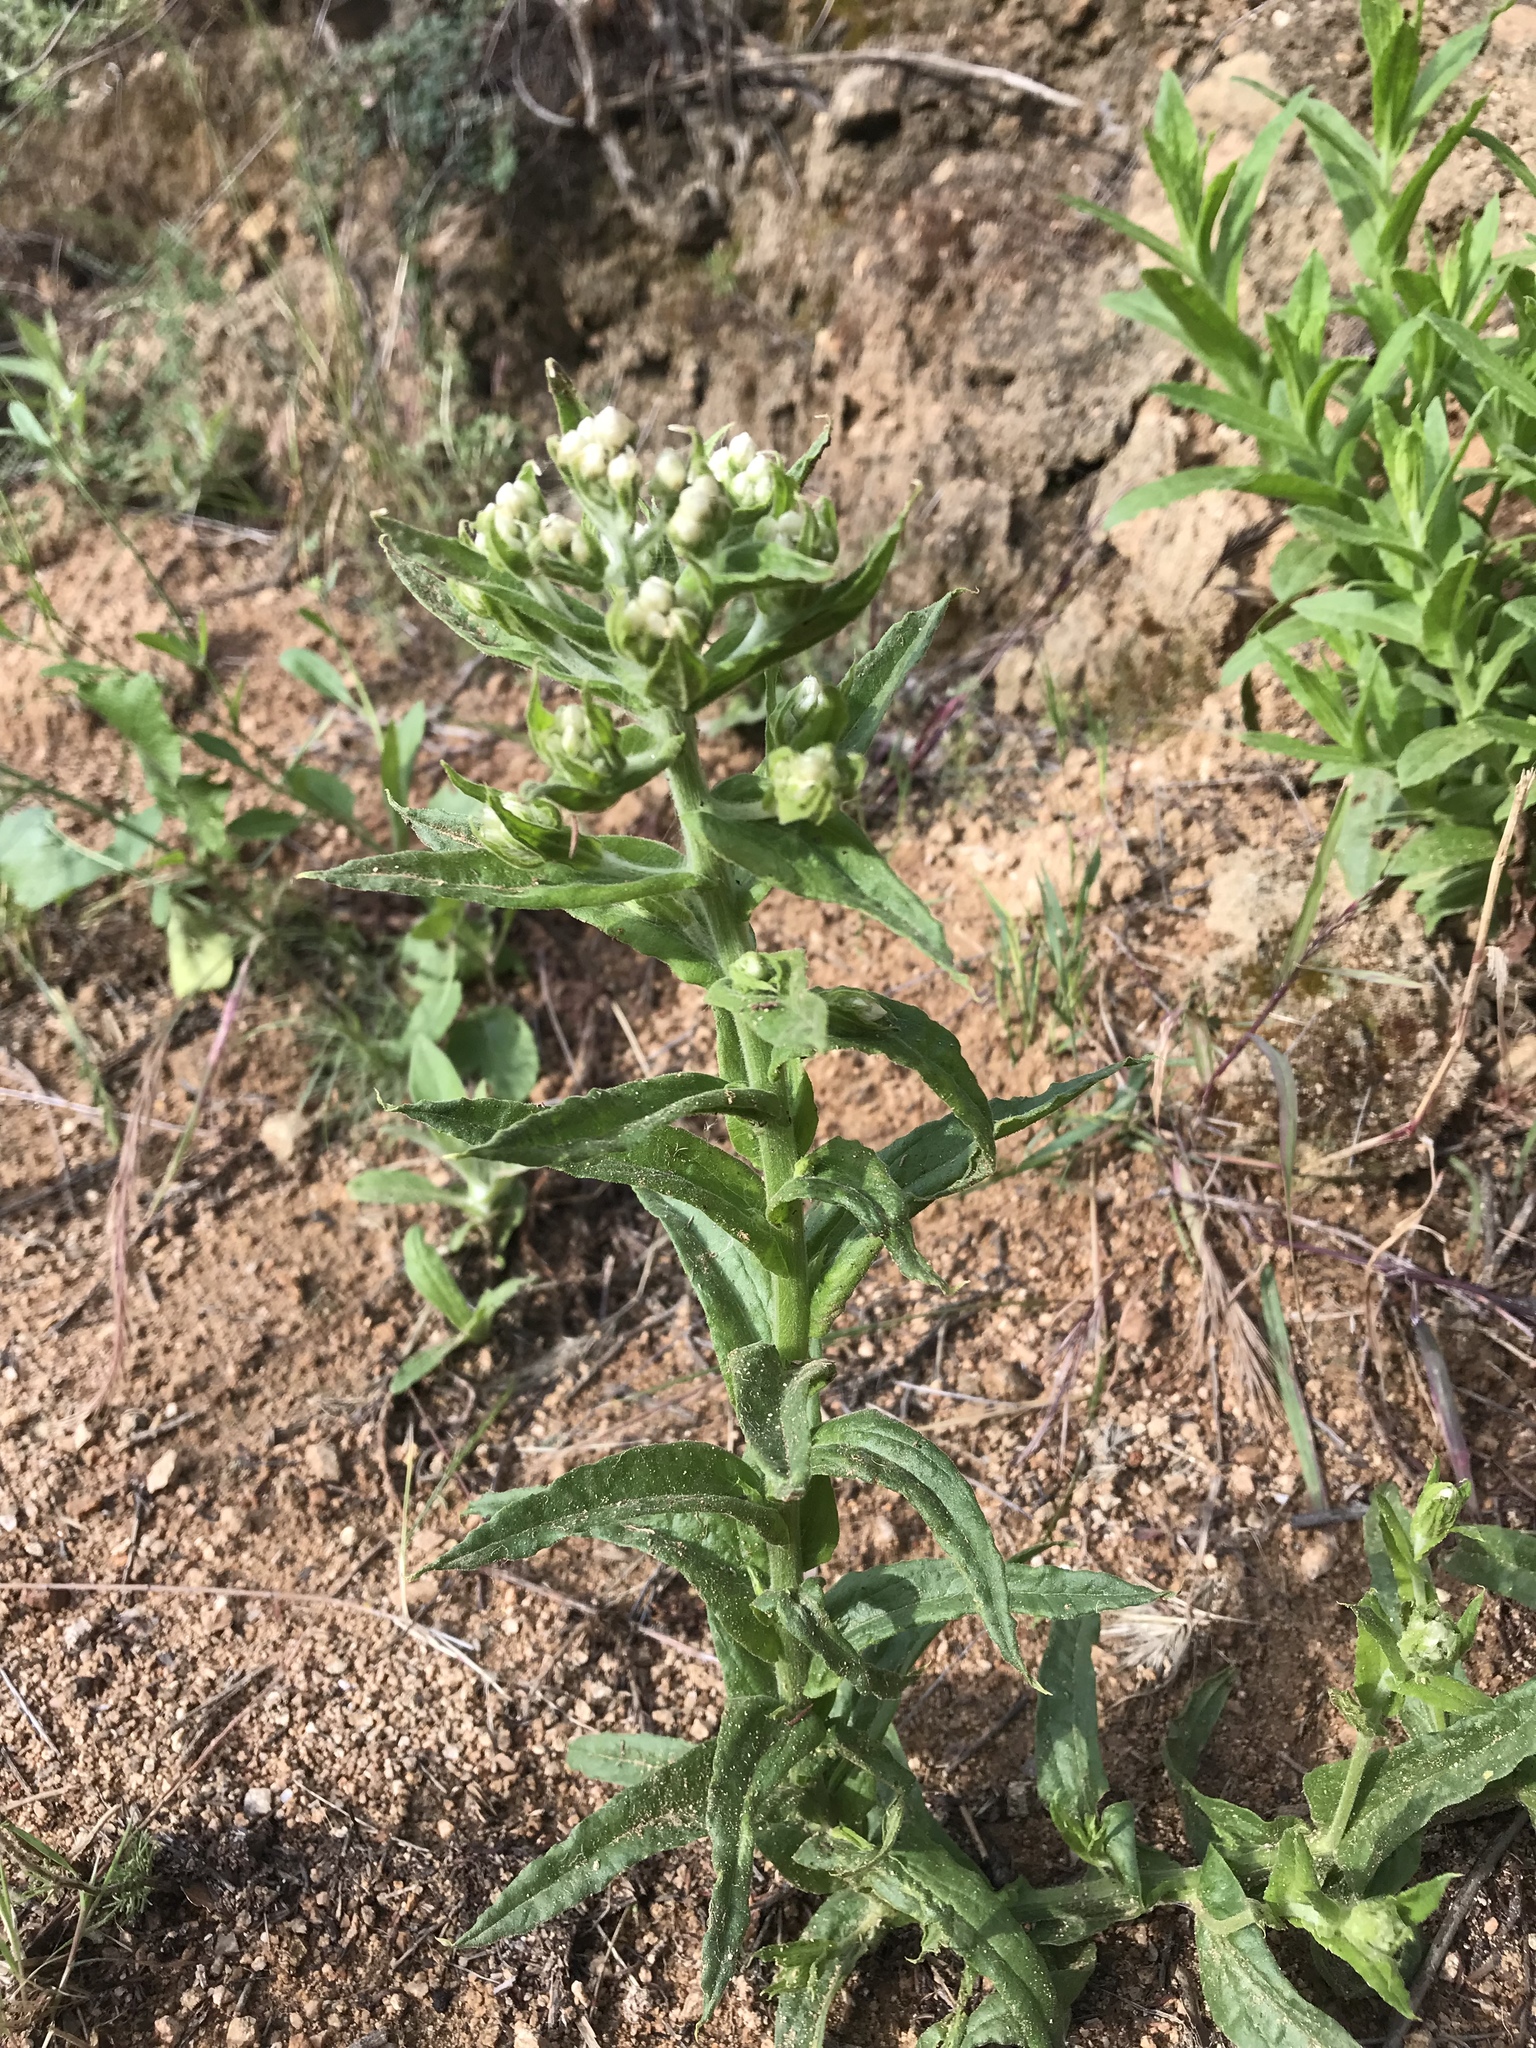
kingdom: Plantae
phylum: Tracheophyta
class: Magnoliopsida
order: Asterales
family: Asteraceae
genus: Pseudognaphalium
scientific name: Pseudognaphalium californicum
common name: California rabbit-tobacco
